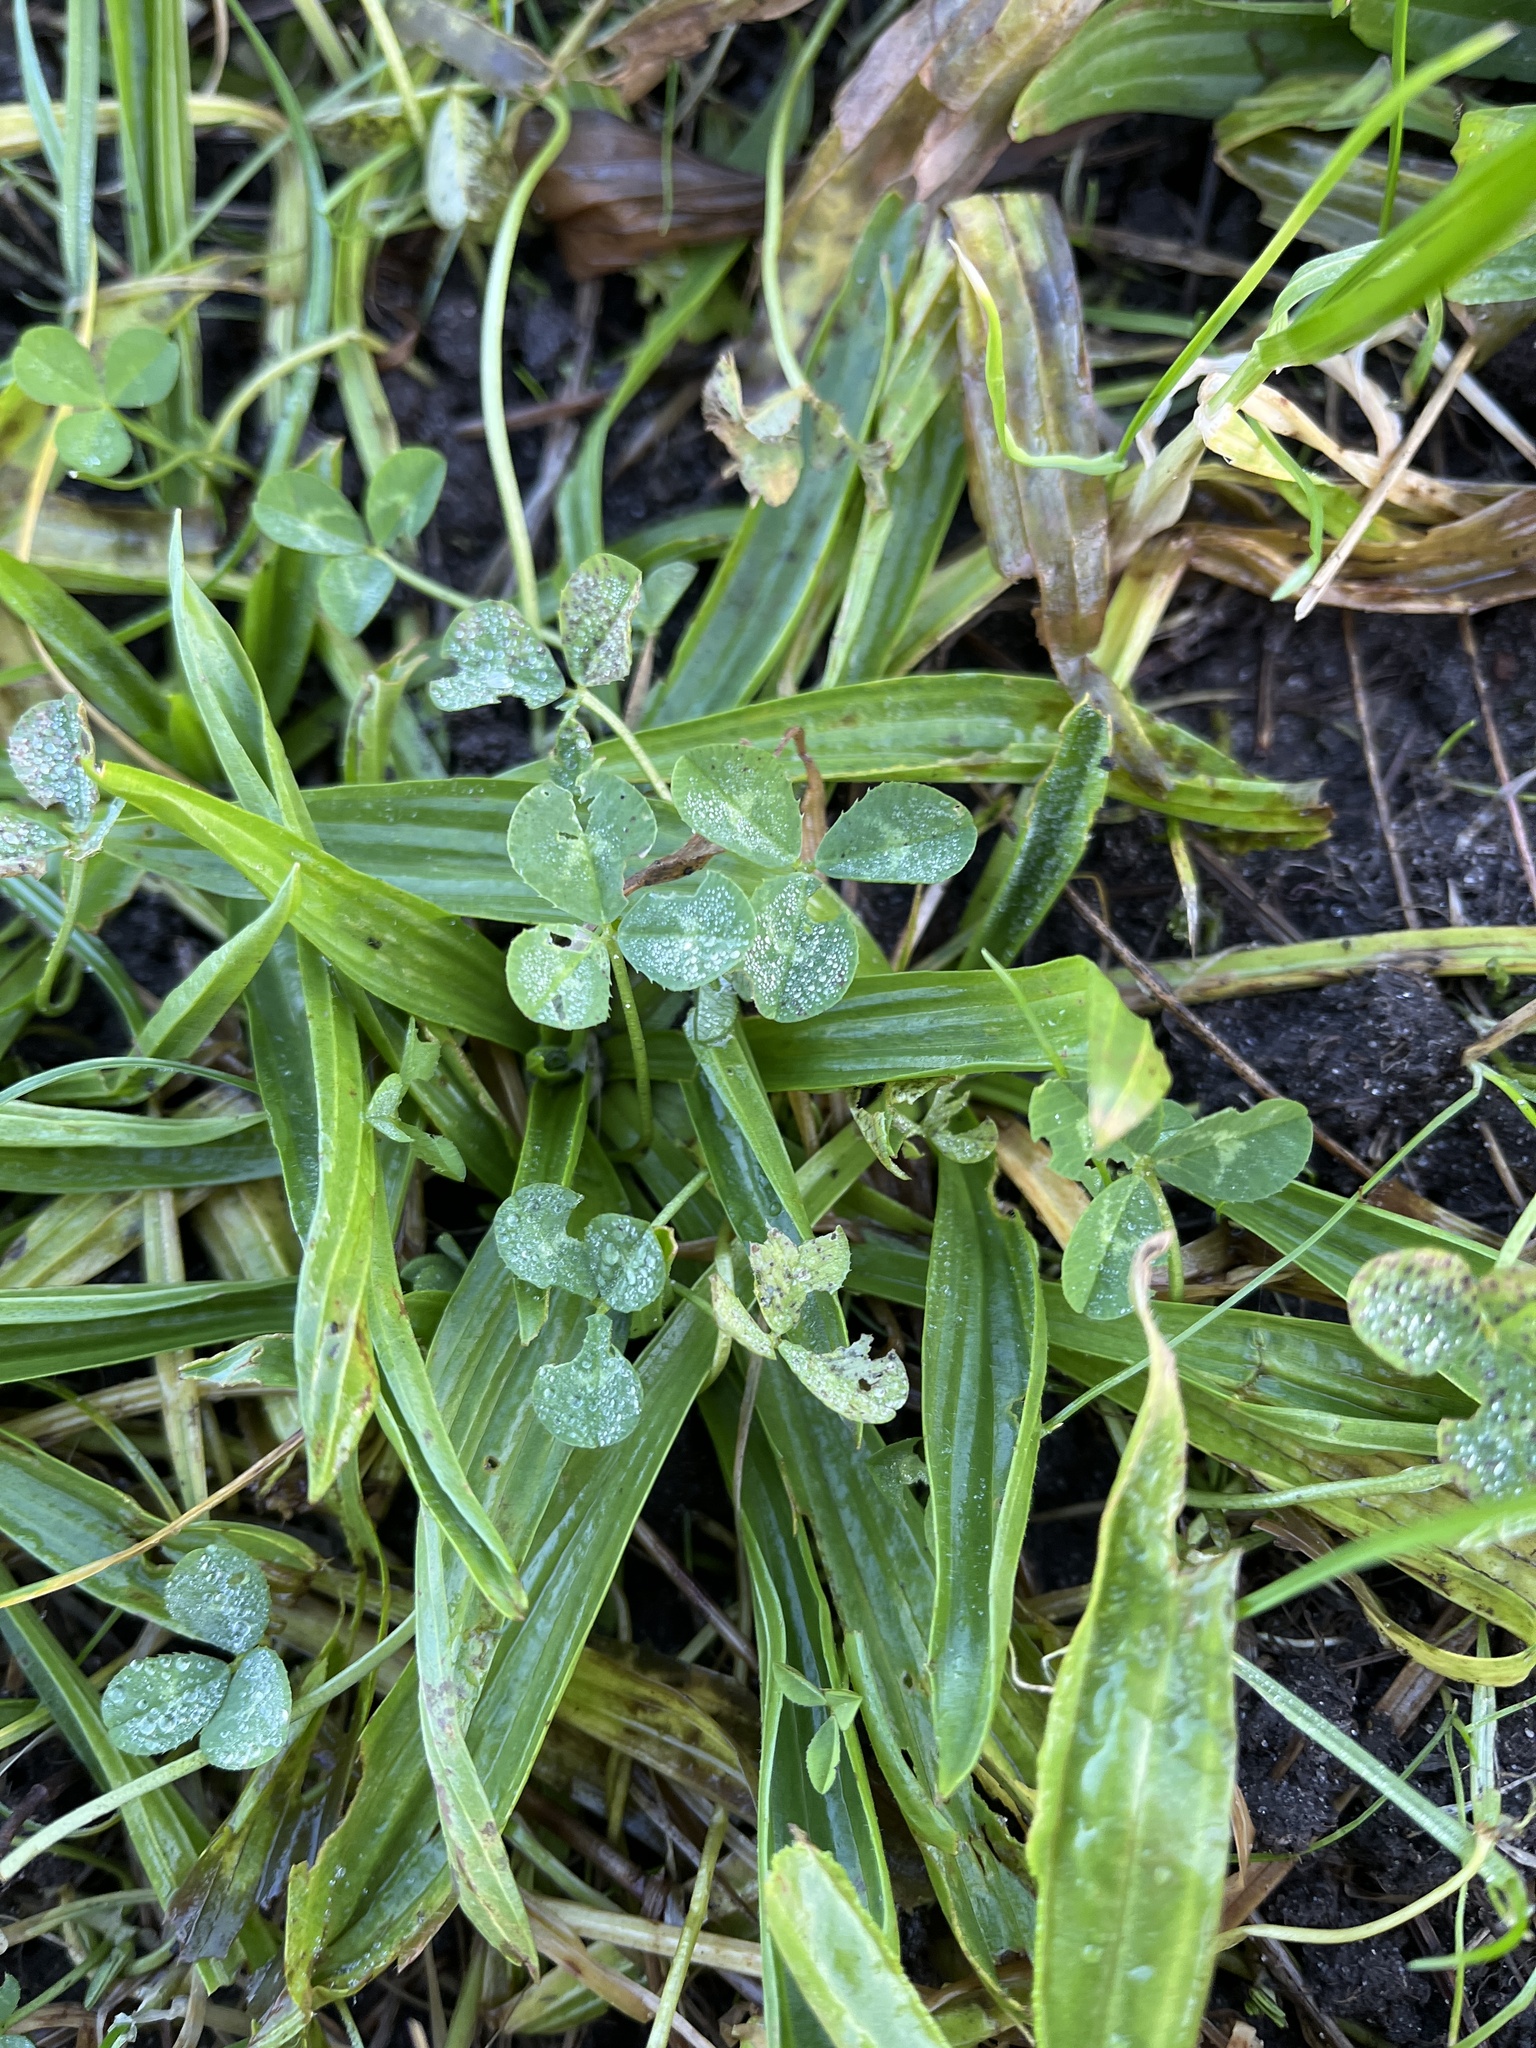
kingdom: Plantae
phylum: Tracheophyta
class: Magnoliopsida
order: Fabales
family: Fabaceae
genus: Trifolium
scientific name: Trifolium repens
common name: White clover
